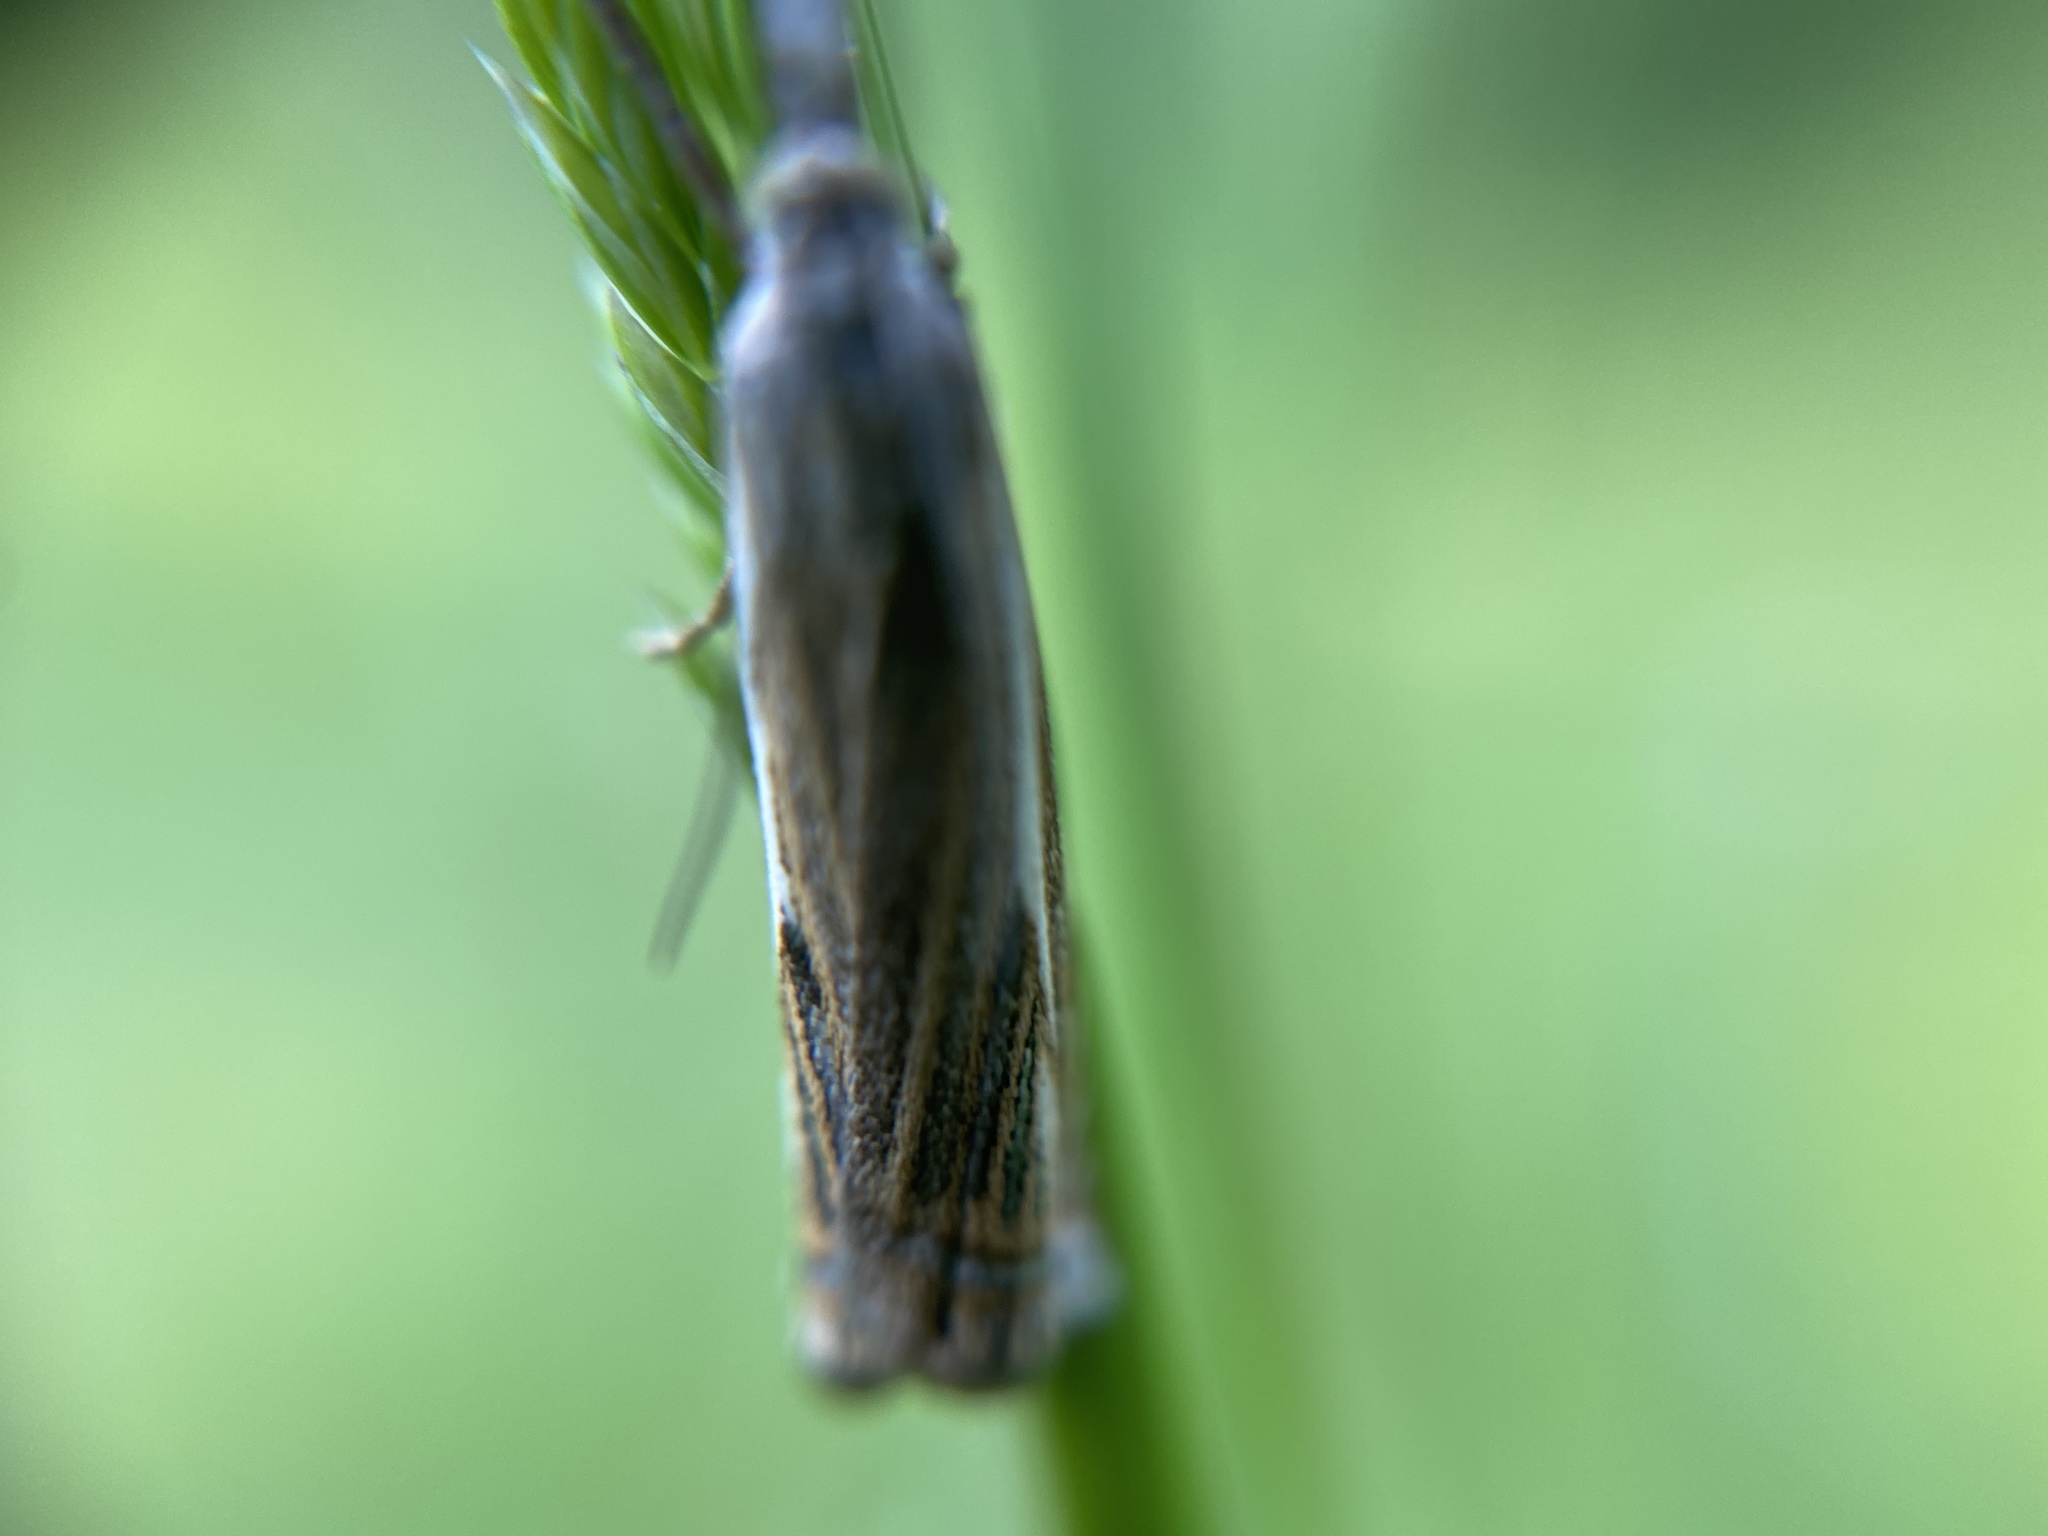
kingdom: Animalia
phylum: Arthropoda
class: Insecta
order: Lepidoptera
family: Crambidae
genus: Crambus
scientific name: Crambus nemorella
